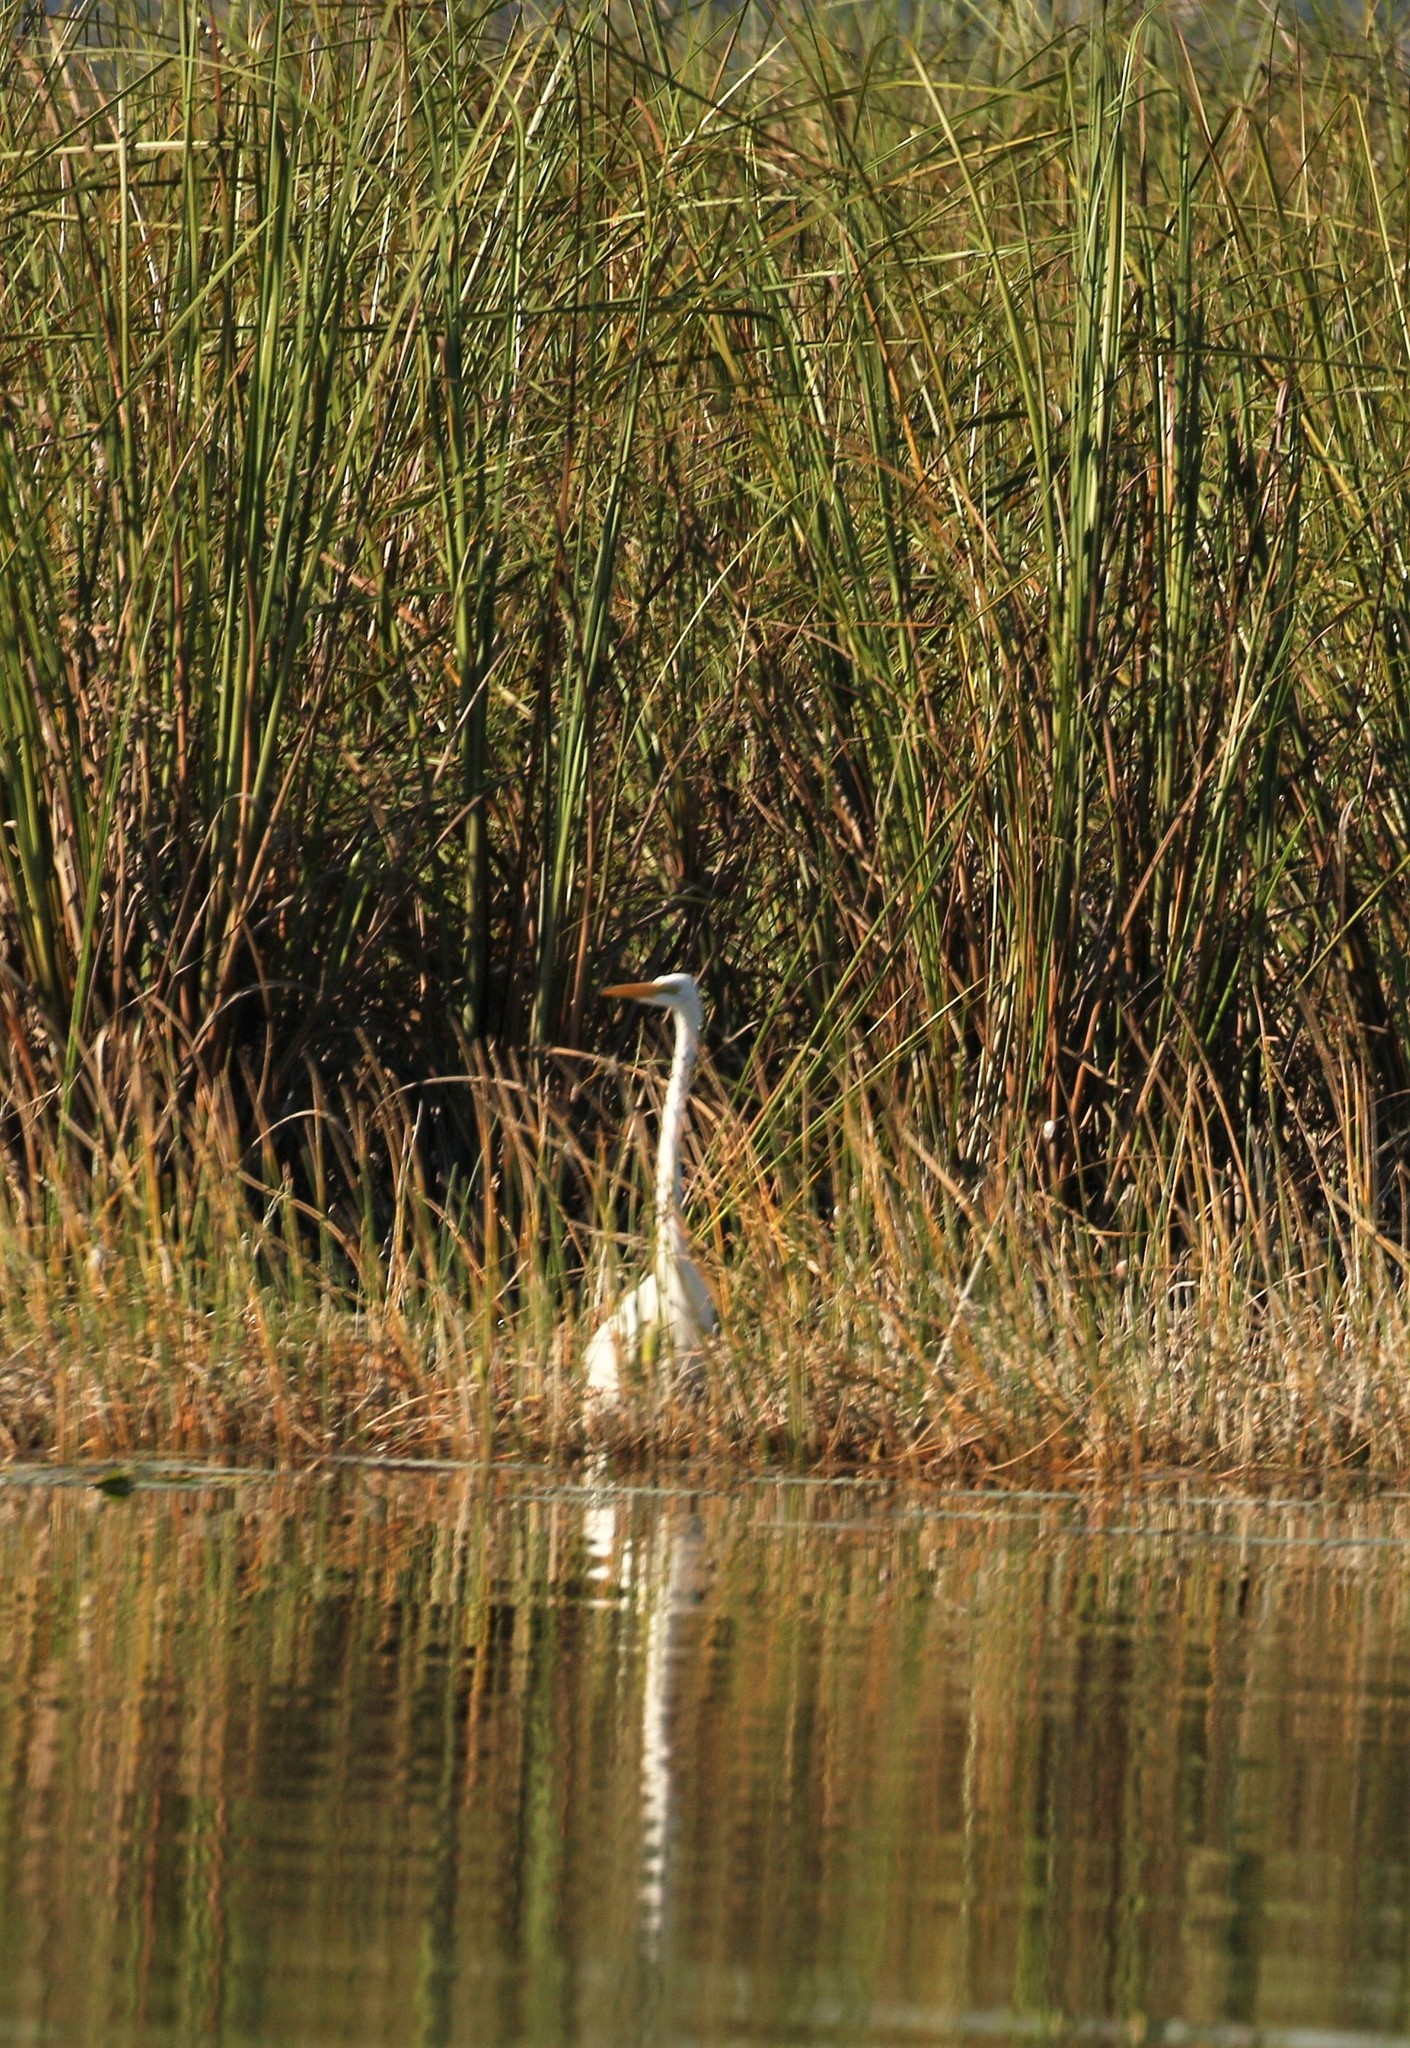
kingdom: Animalia
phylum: Chordata
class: Aves
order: Pelecaniformes
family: Ardeidae
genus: Ardea
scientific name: Ardea alba
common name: Great egret
